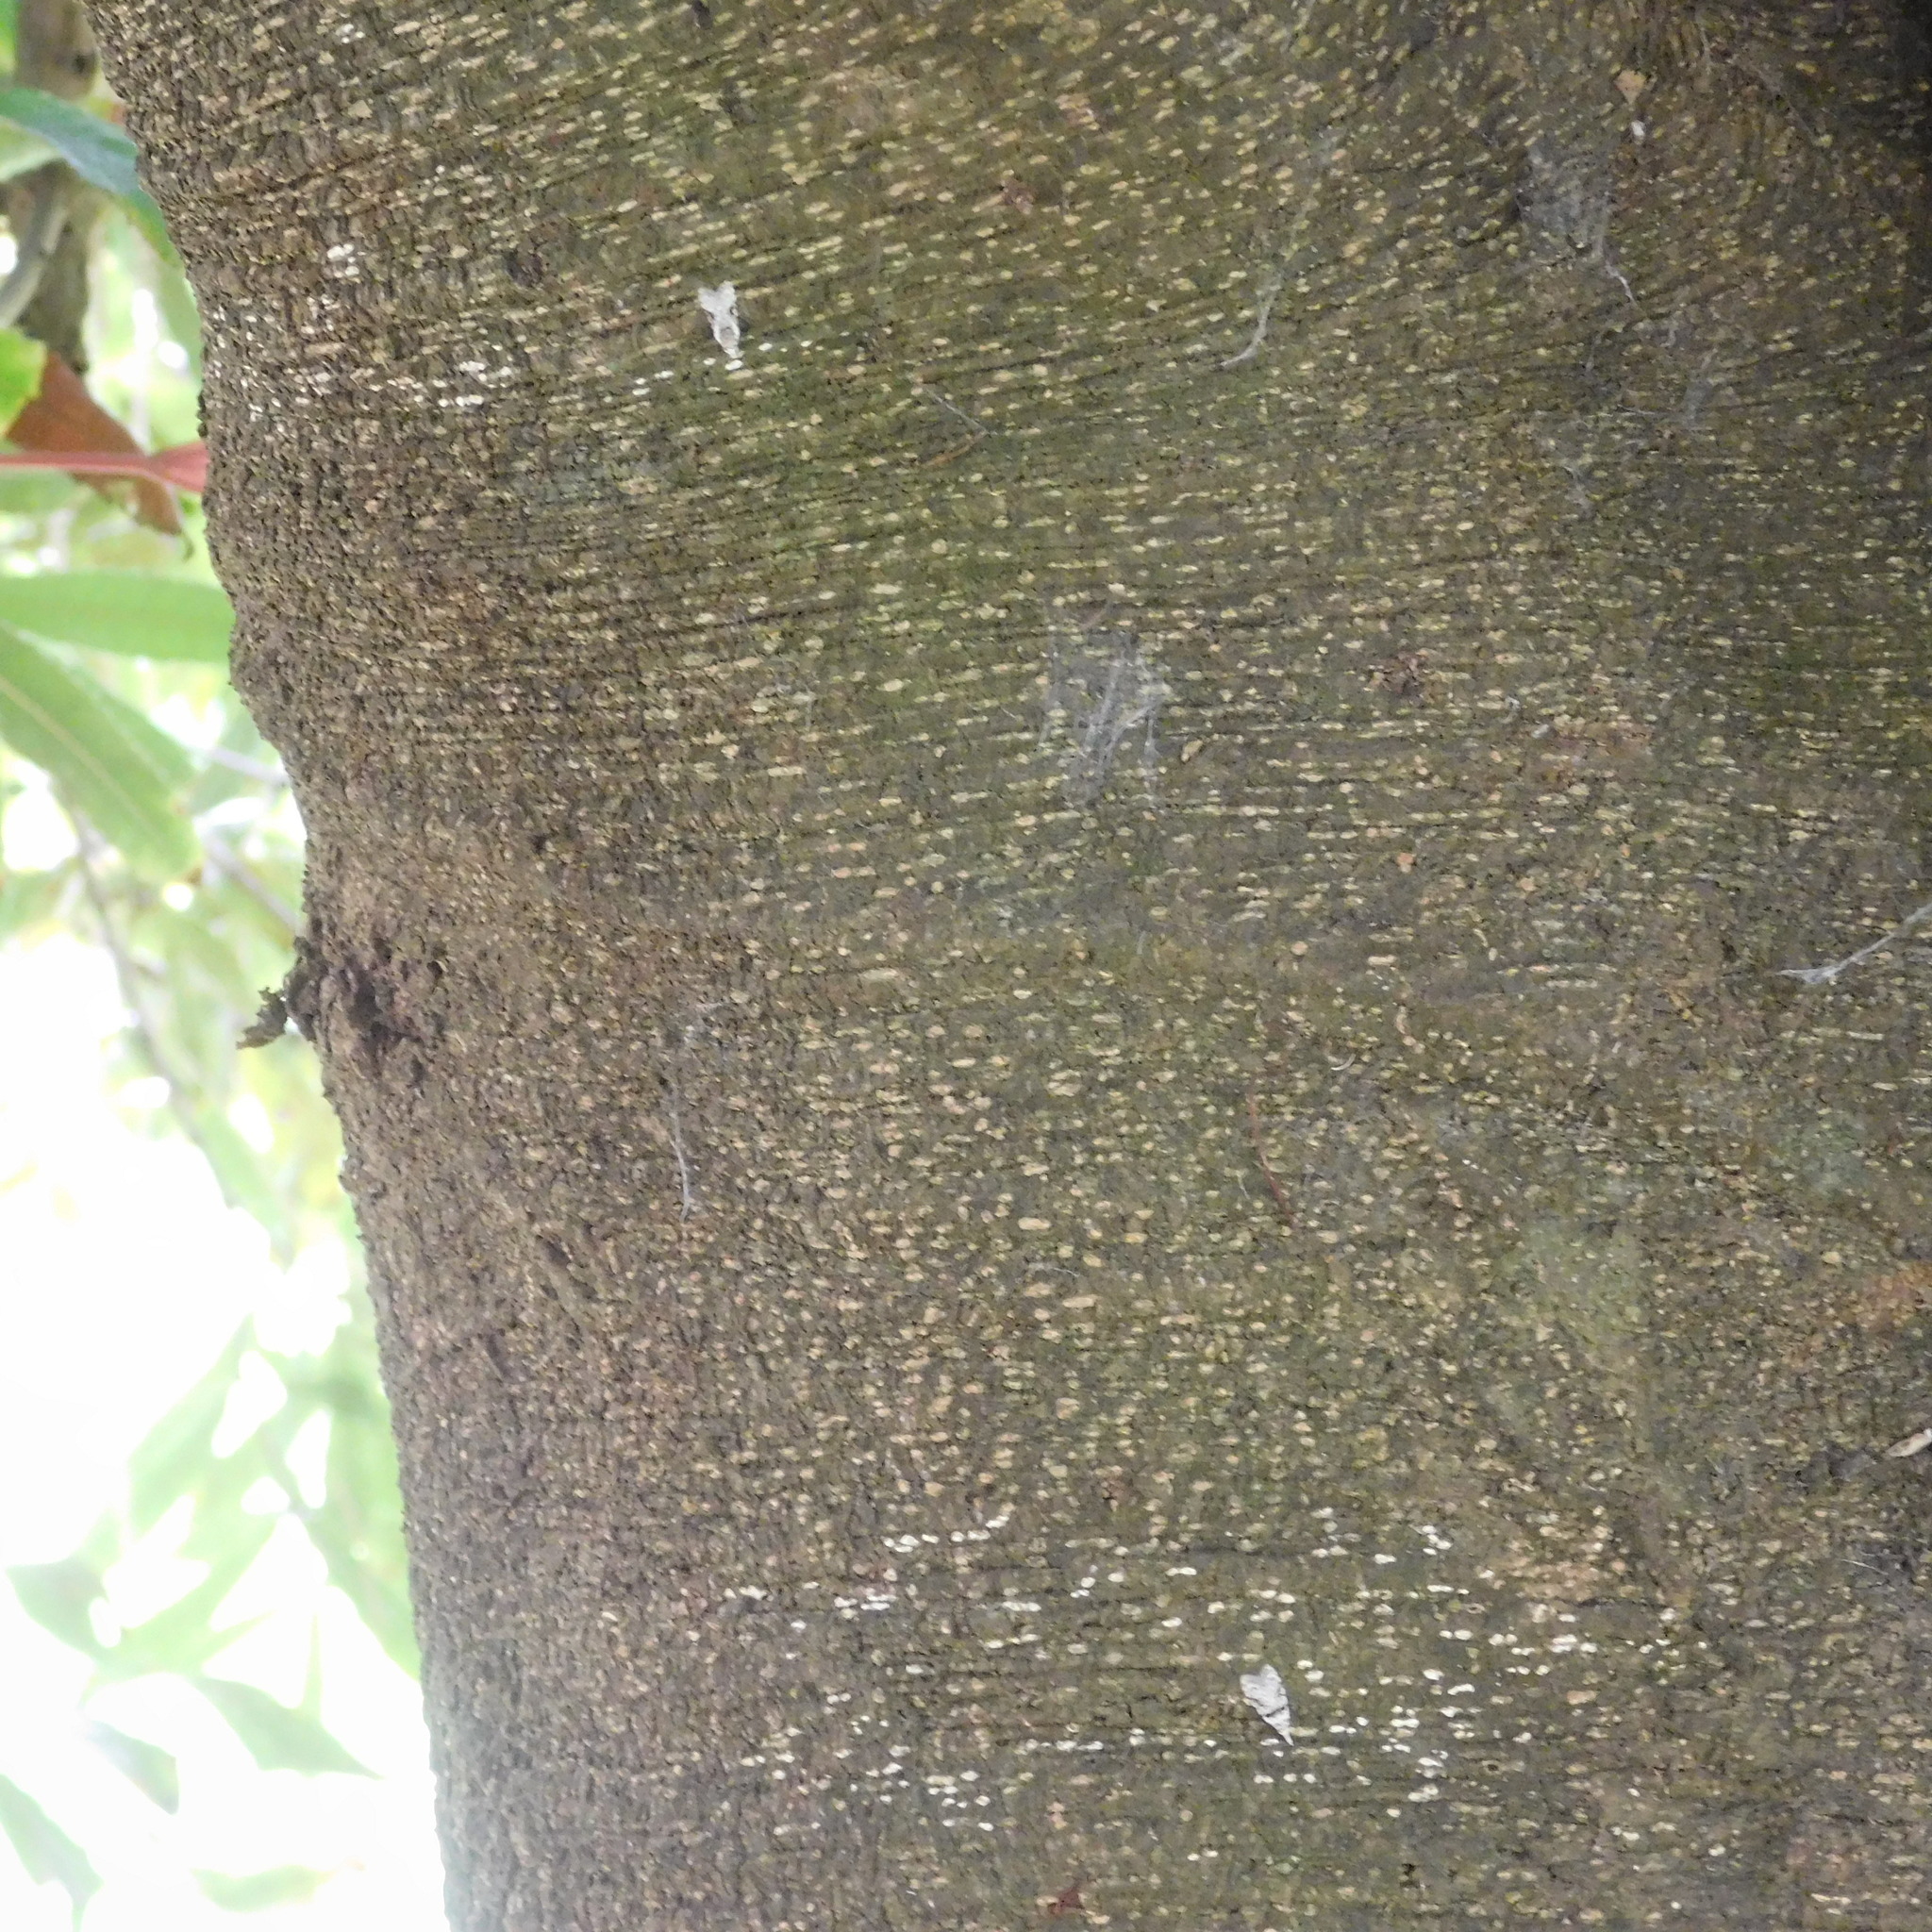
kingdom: Animalia
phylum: Arthropoda
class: Insecta
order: Lepidoptera
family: Carposinidae
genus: Coscinoptycha
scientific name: Coscinoptycha improbana
